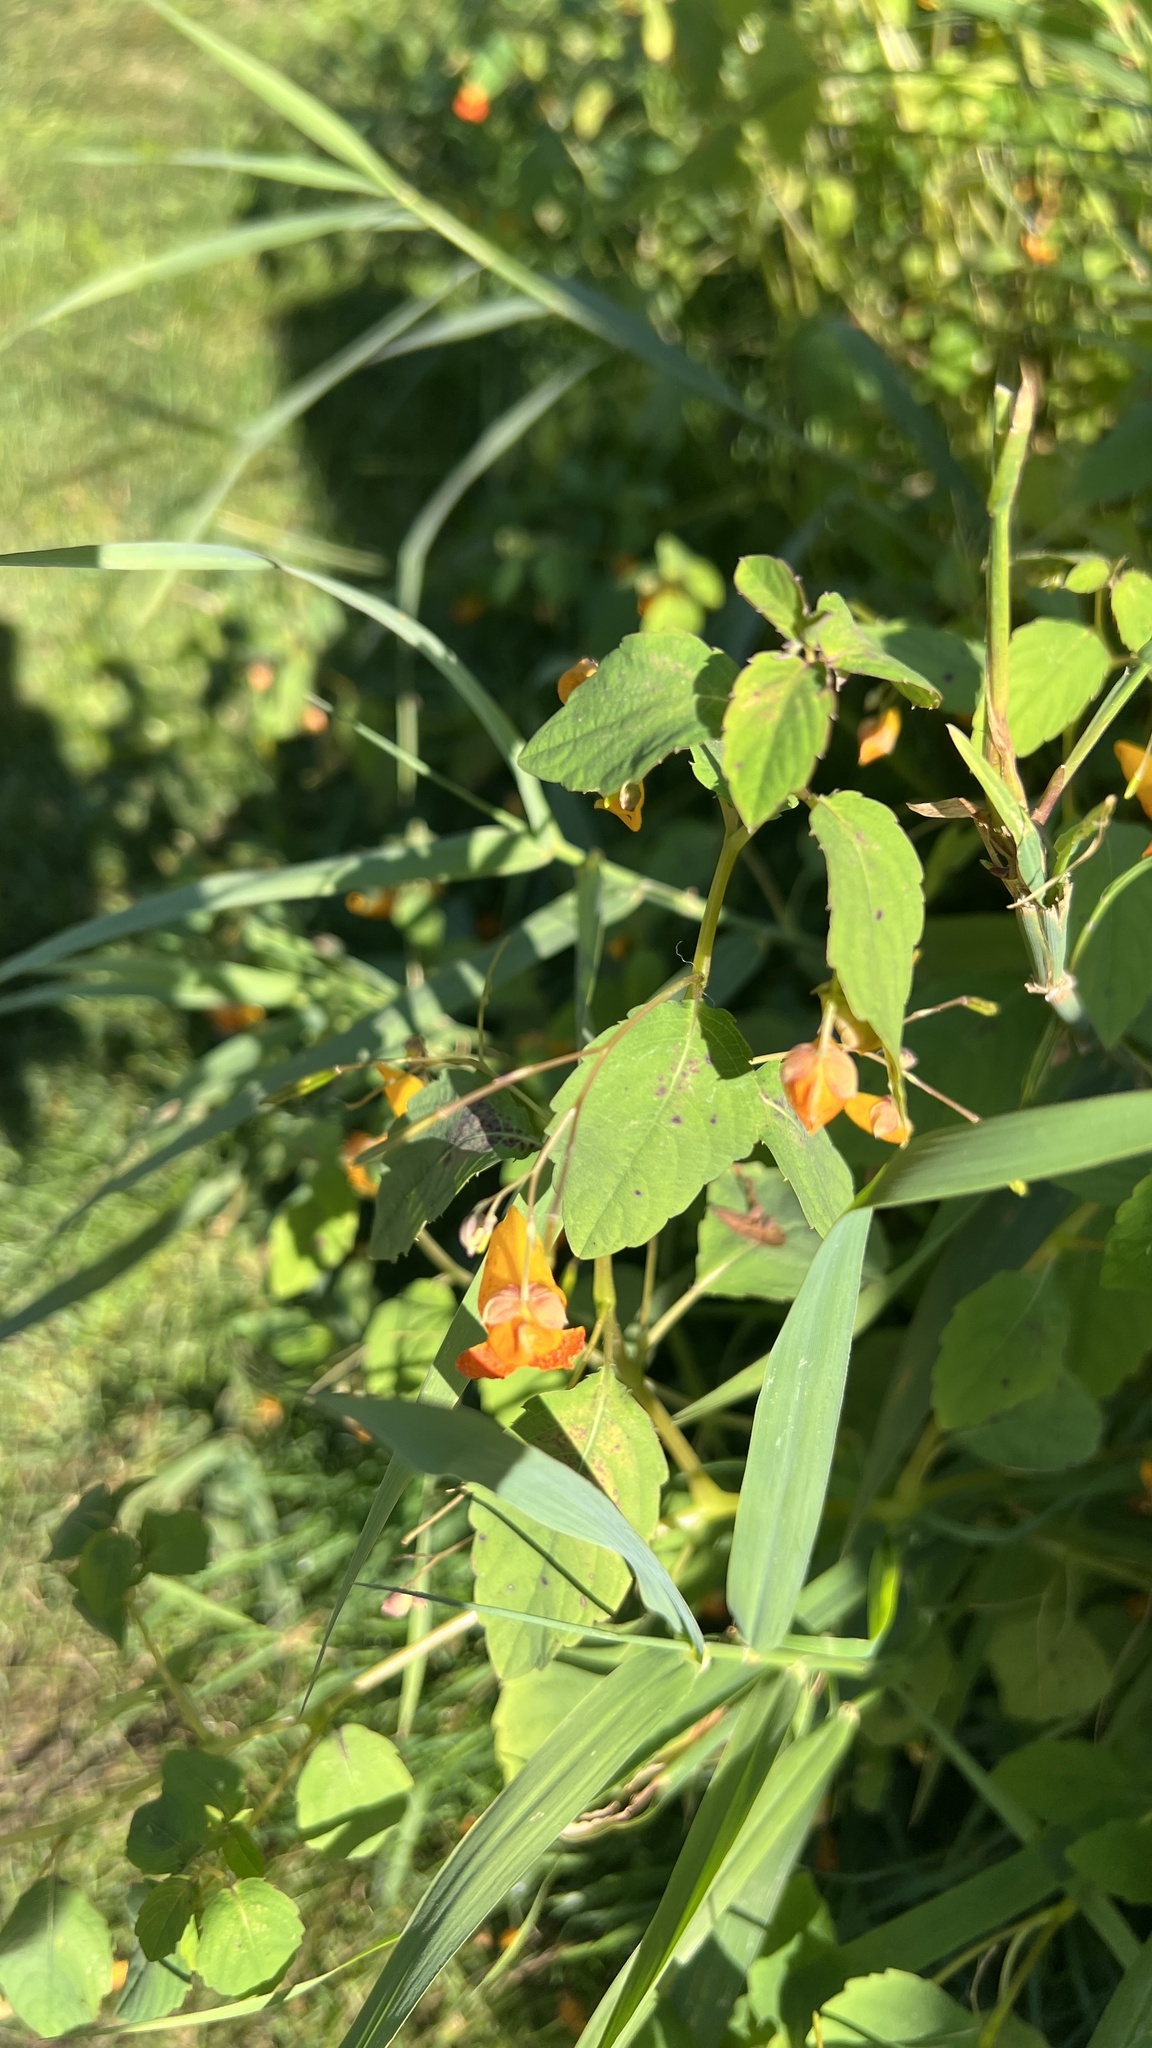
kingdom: Plantae
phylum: Tracheophyta
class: Magnoliopsida
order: Ericales
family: Balsaminaceae
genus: Impatiens
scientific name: Impatiens capensis
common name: Orange balsam
